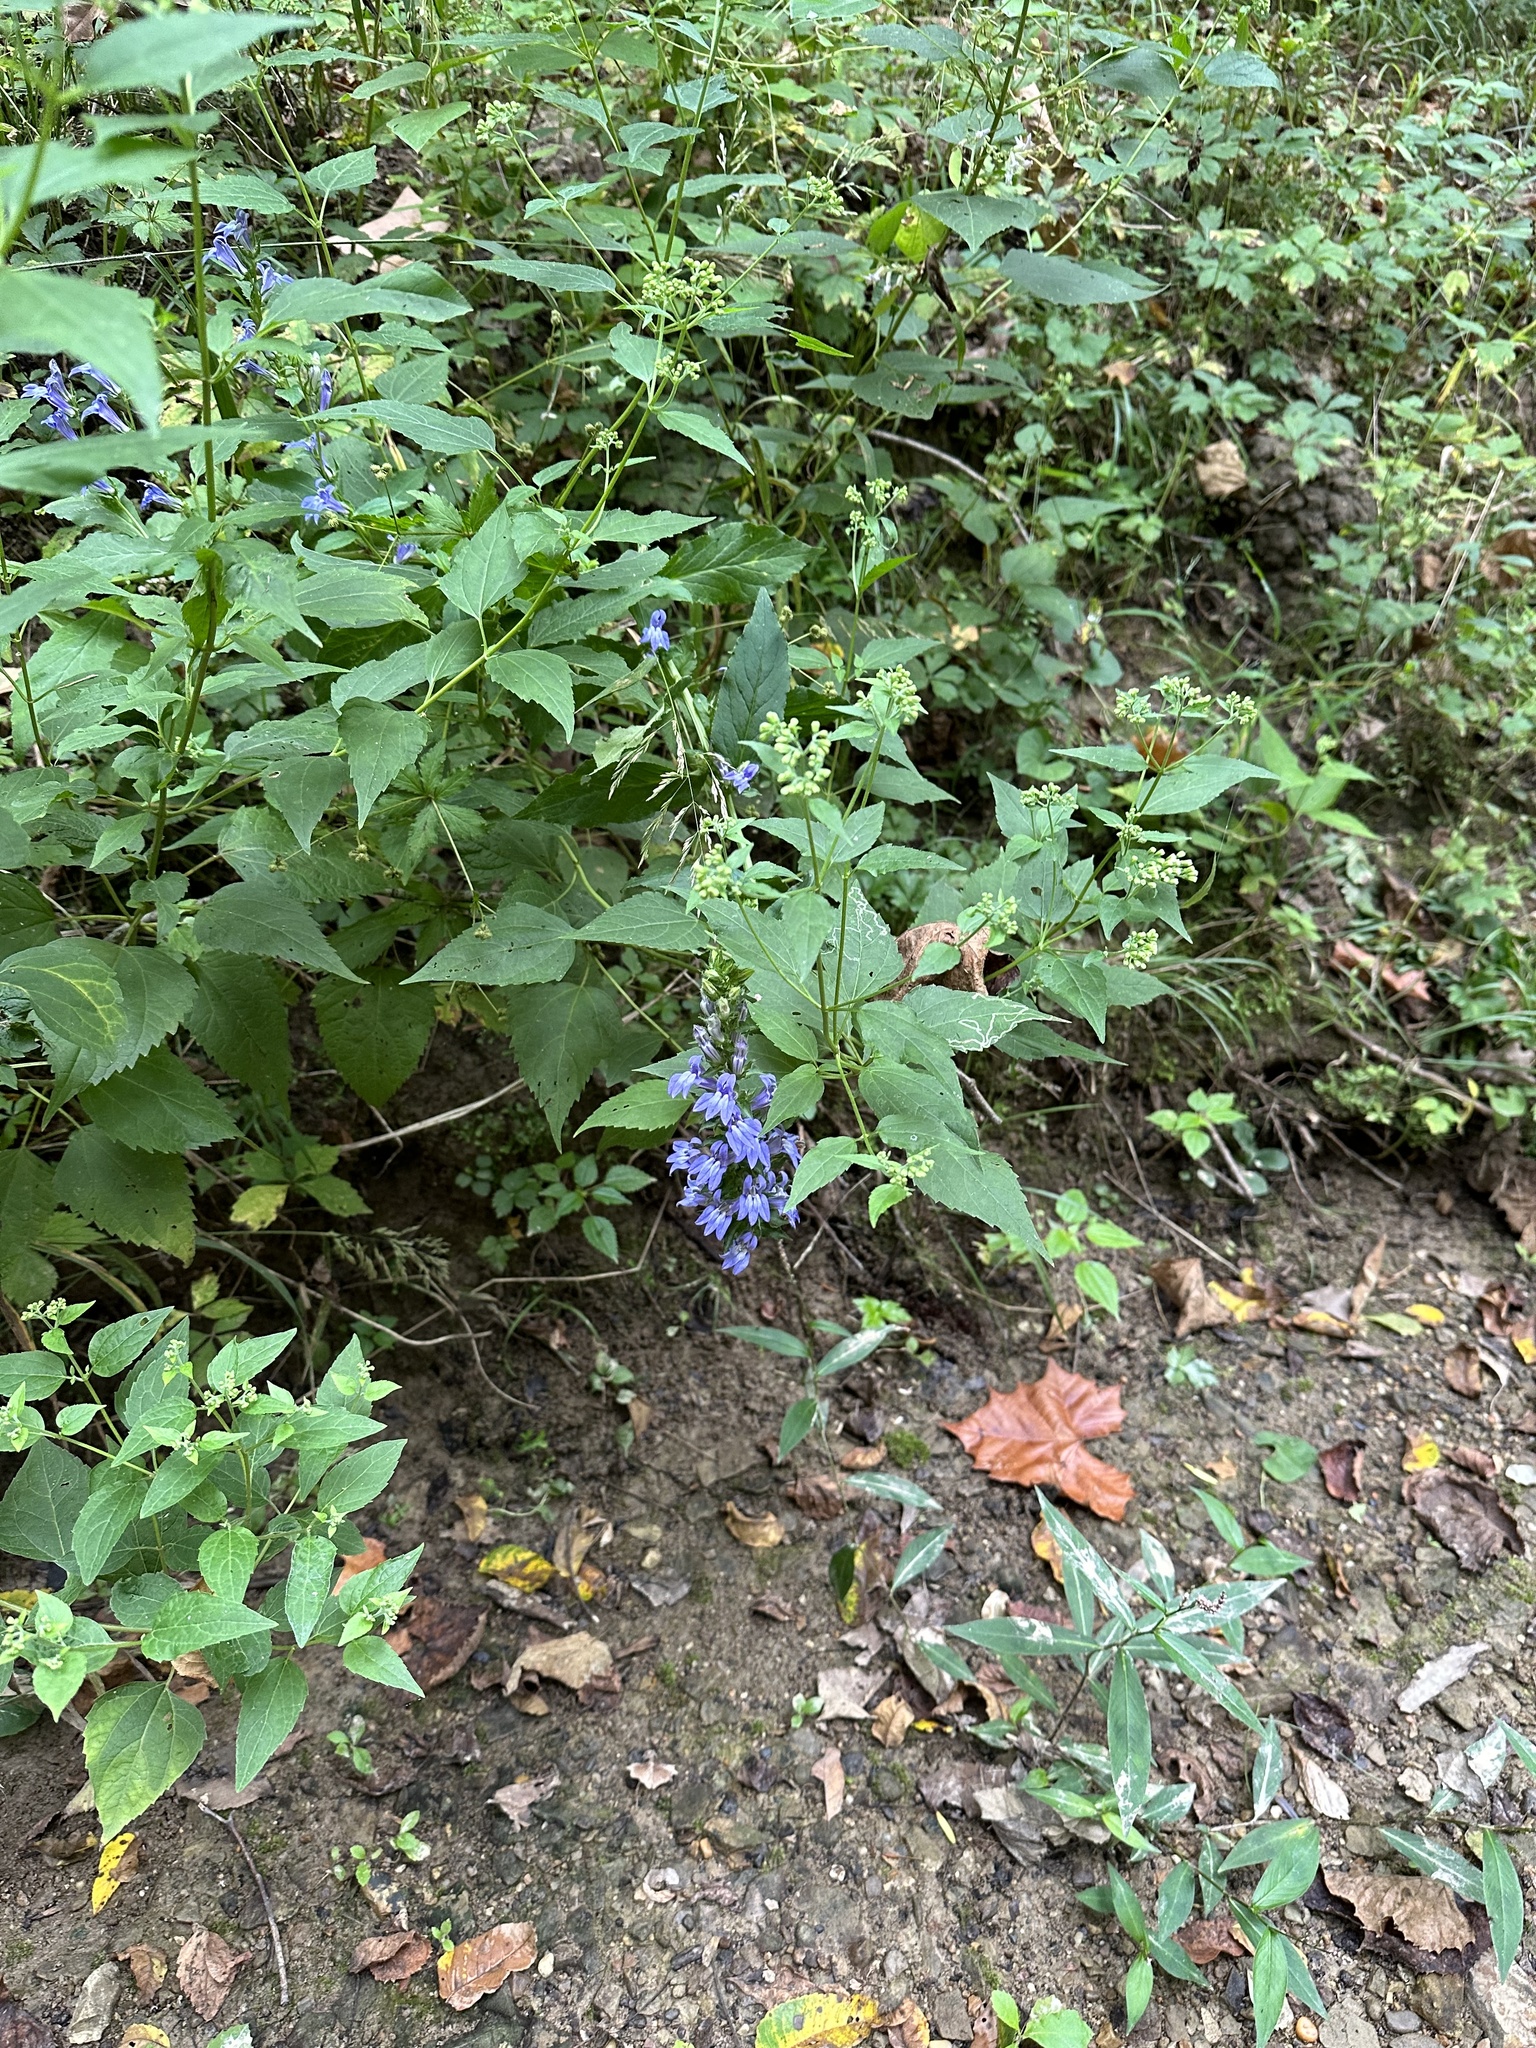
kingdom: Plantae
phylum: Tracheophyta
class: Magnoliopsida
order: Asterales
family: Campanulaceae
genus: Lobelia
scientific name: Lobelia siphilitica
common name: Great lobelia
